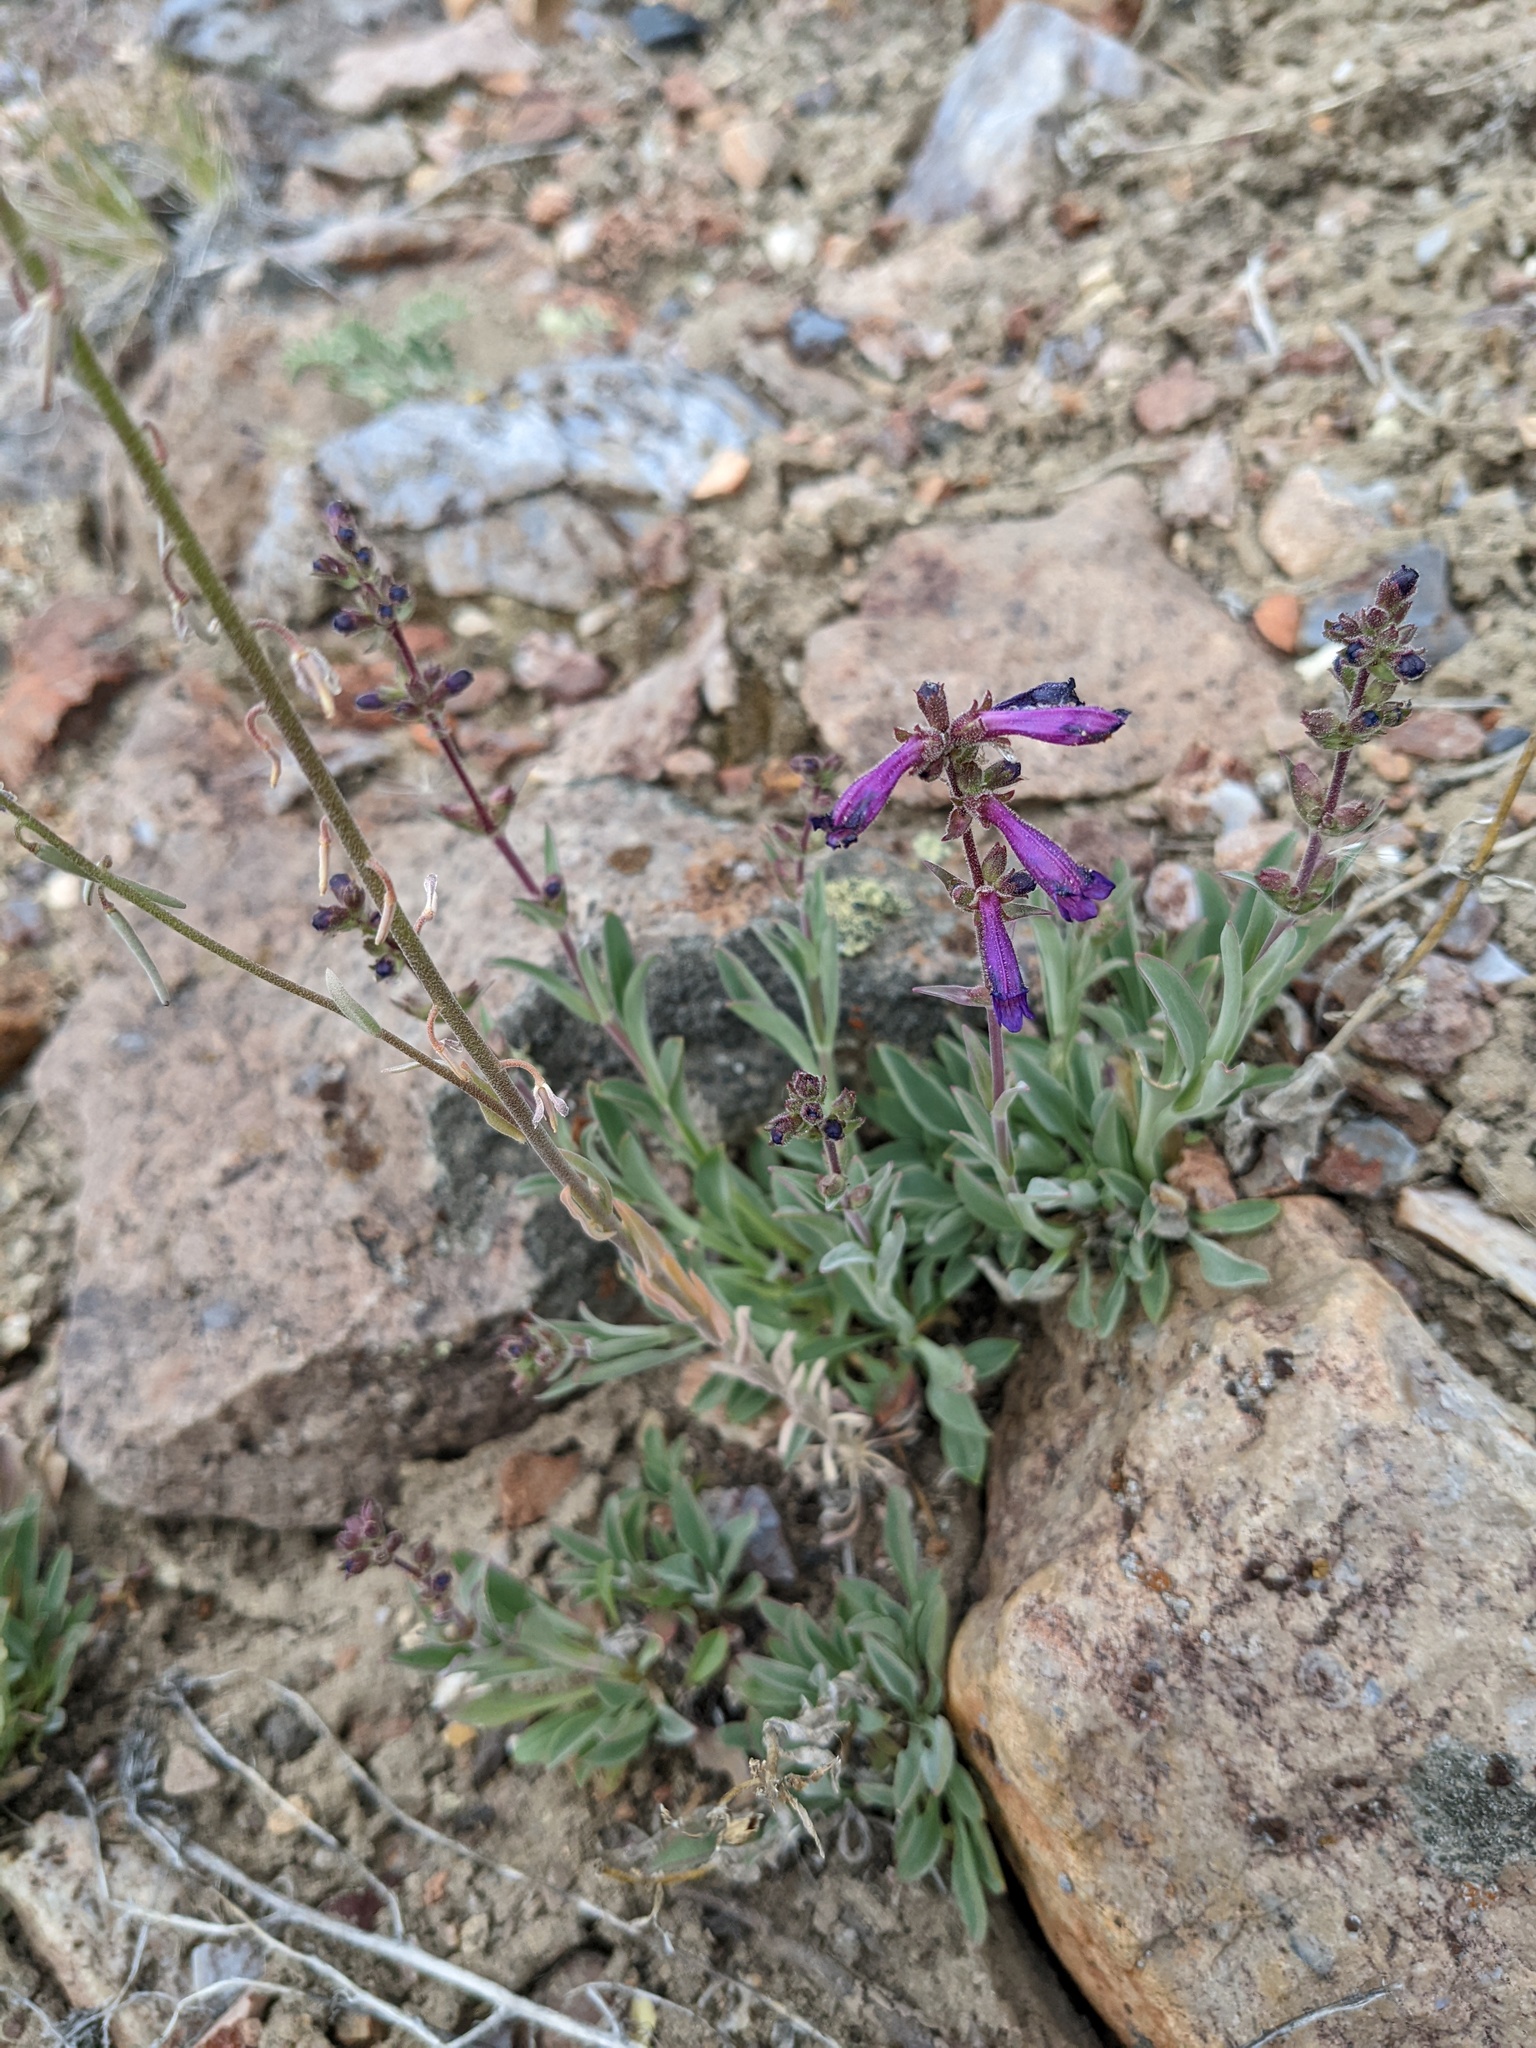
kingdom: Plantae
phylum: Tracheophyta
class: Magnoliopsida
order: Lamiales
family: Plantaginaceae
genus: Penstemon
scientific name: Penstemon humilis
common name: Low penstemon
